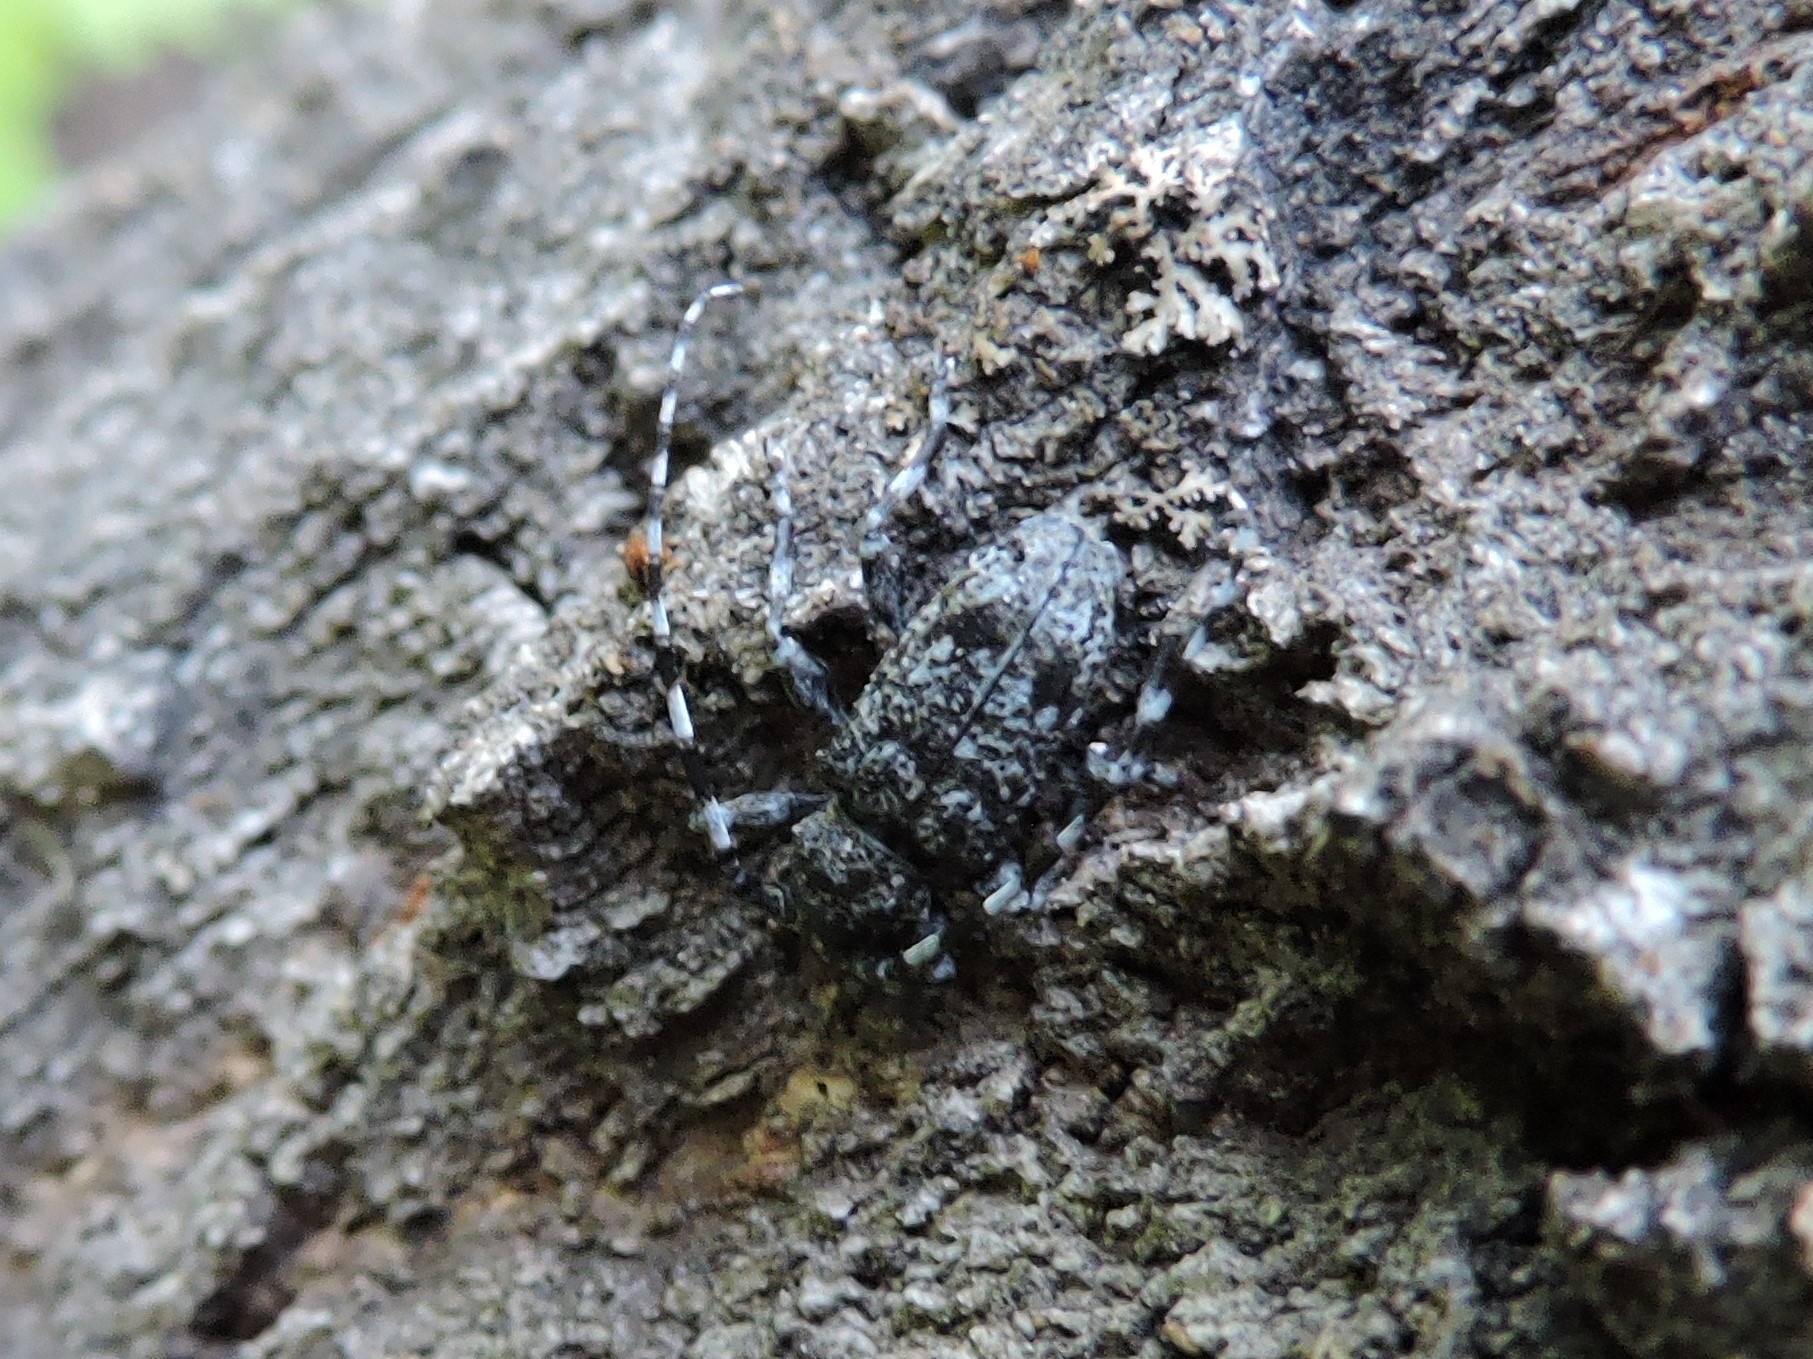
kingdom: Animalia
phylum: Arthropoda
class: Insecta
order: Coleoptera
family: Cerambycidae
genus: Aegomorphus
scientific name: Aegomorphus clavipes
